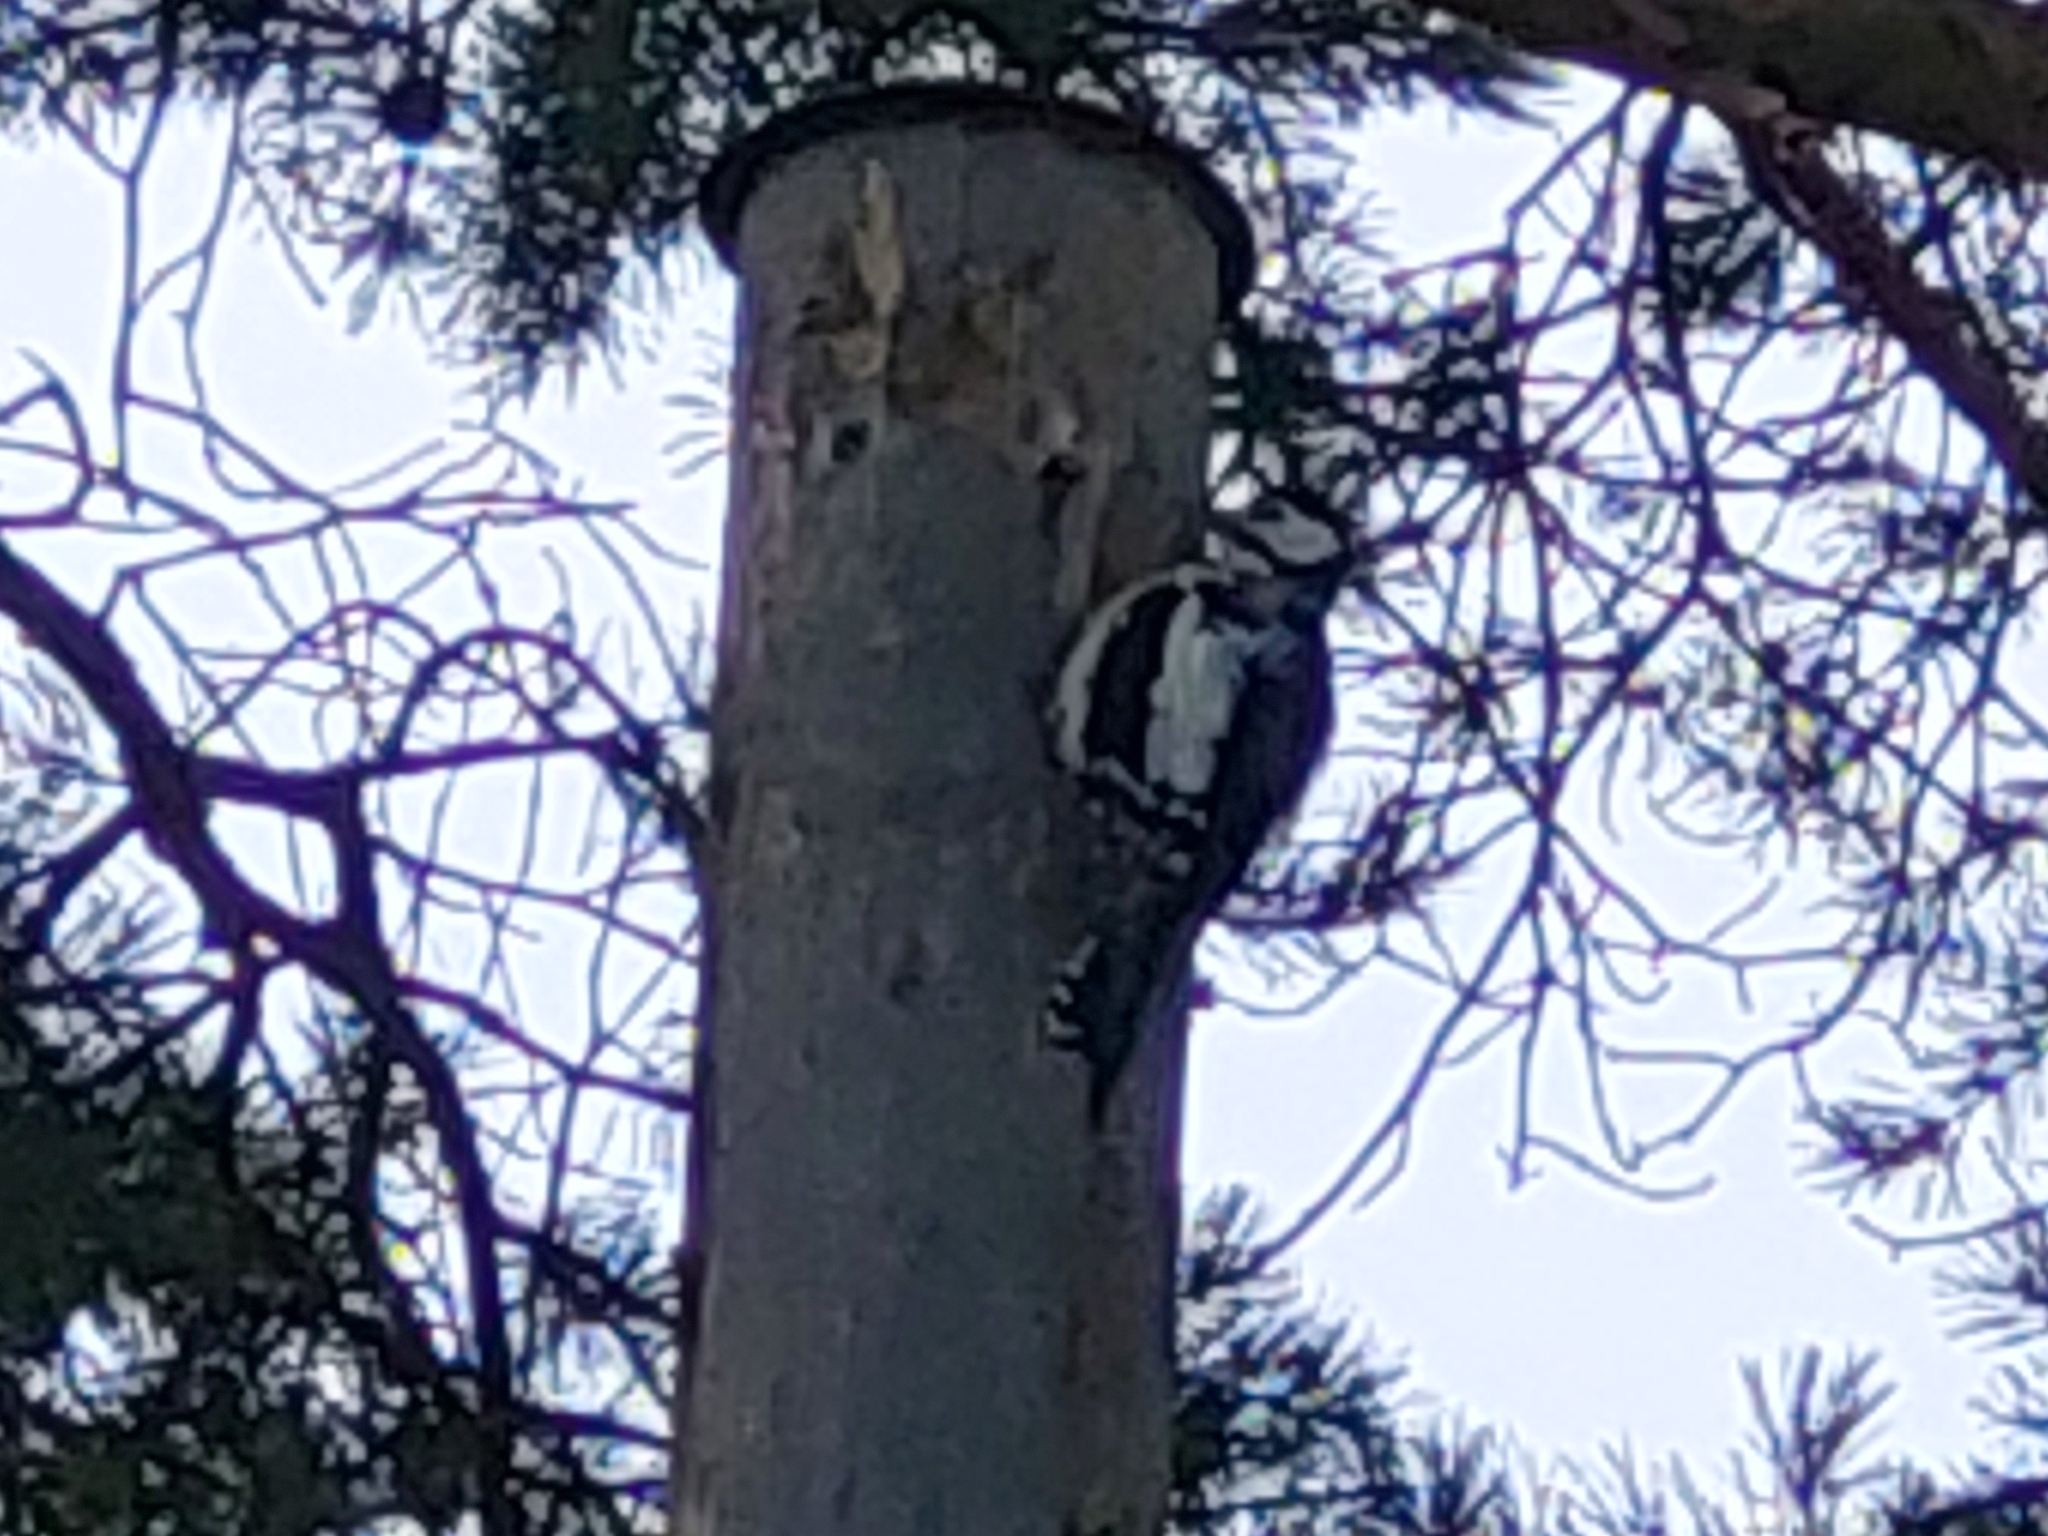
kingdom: Animalia
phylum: Chordata
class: Aves
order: Piciformes
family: Picidae
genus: Dendrocopos
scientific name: Dendrocopos major
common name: Great spotted woodpecker
